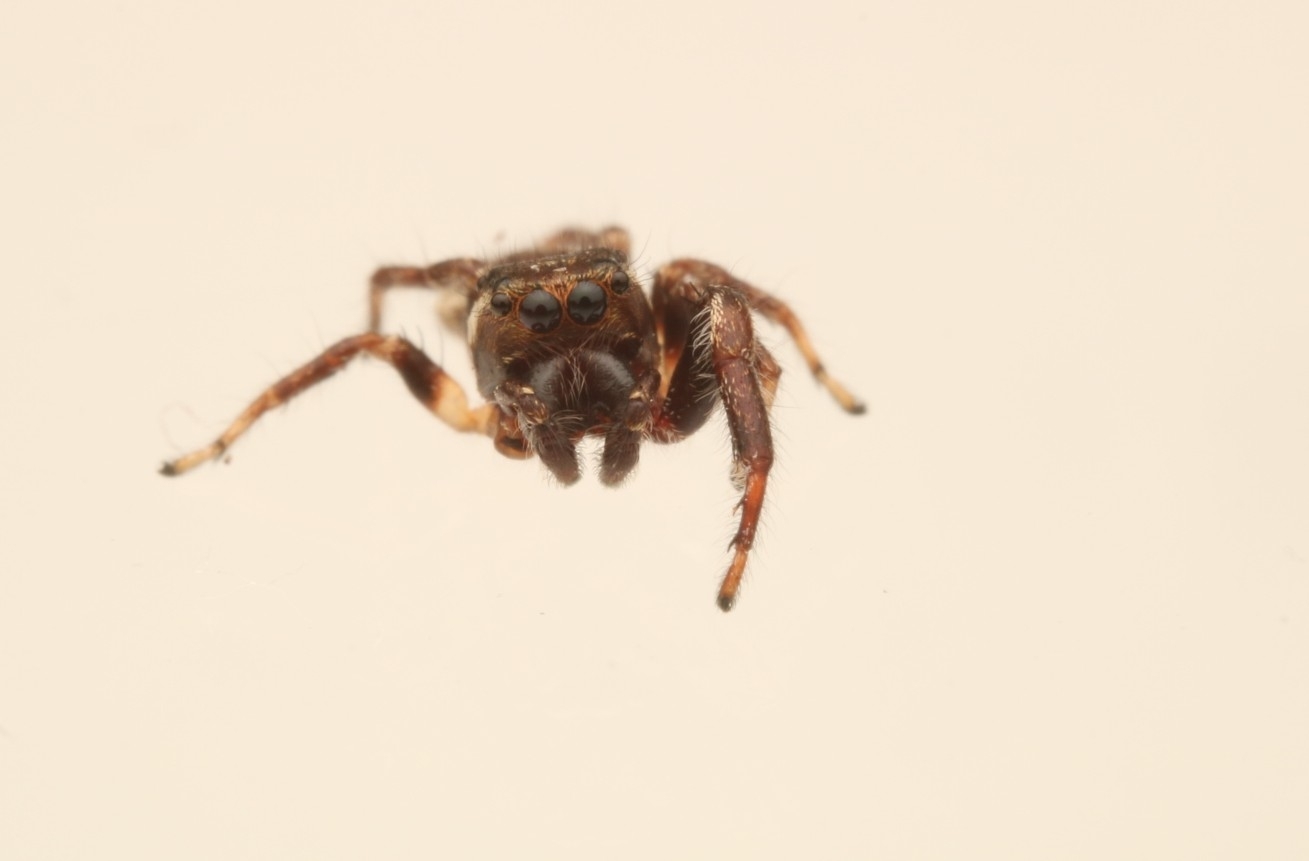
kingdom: Animalia
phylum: Arthropoda
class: Arachnida
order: Araneae
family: Salticidae
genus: Eris
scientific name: Eris militaris
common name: Bronze jumper
